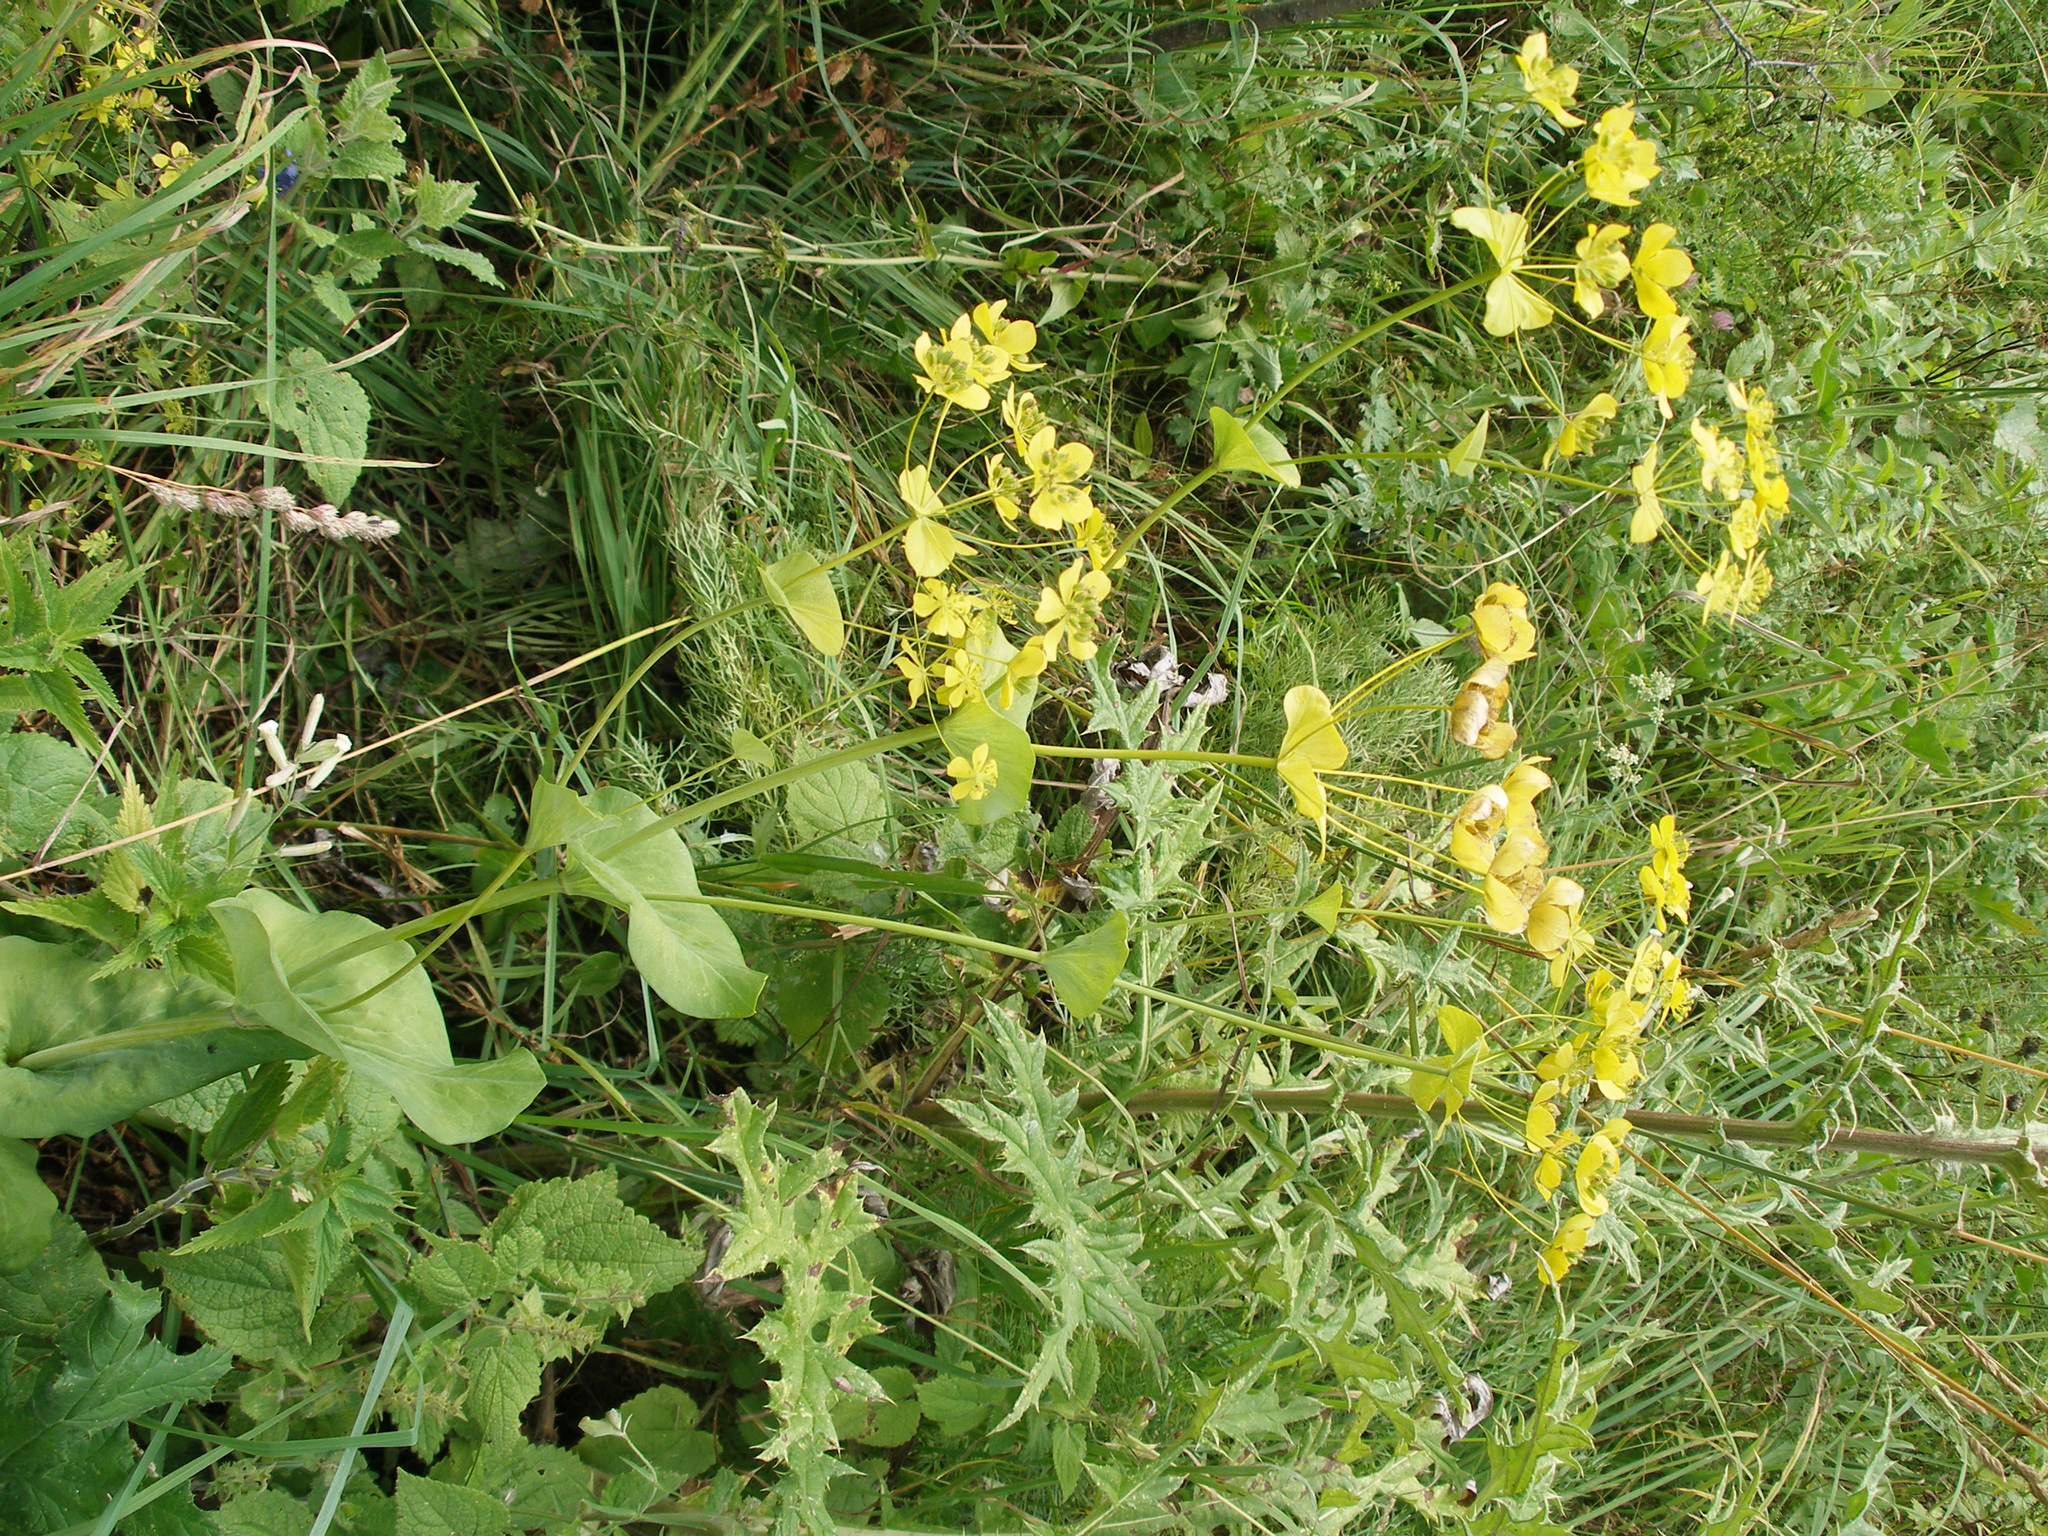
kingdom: Plantae
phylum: Tracheophyta
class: Magnoliopsida
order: Apiales
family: Apiaceae
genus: Bupleurum
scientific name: Bupleurum aureum
